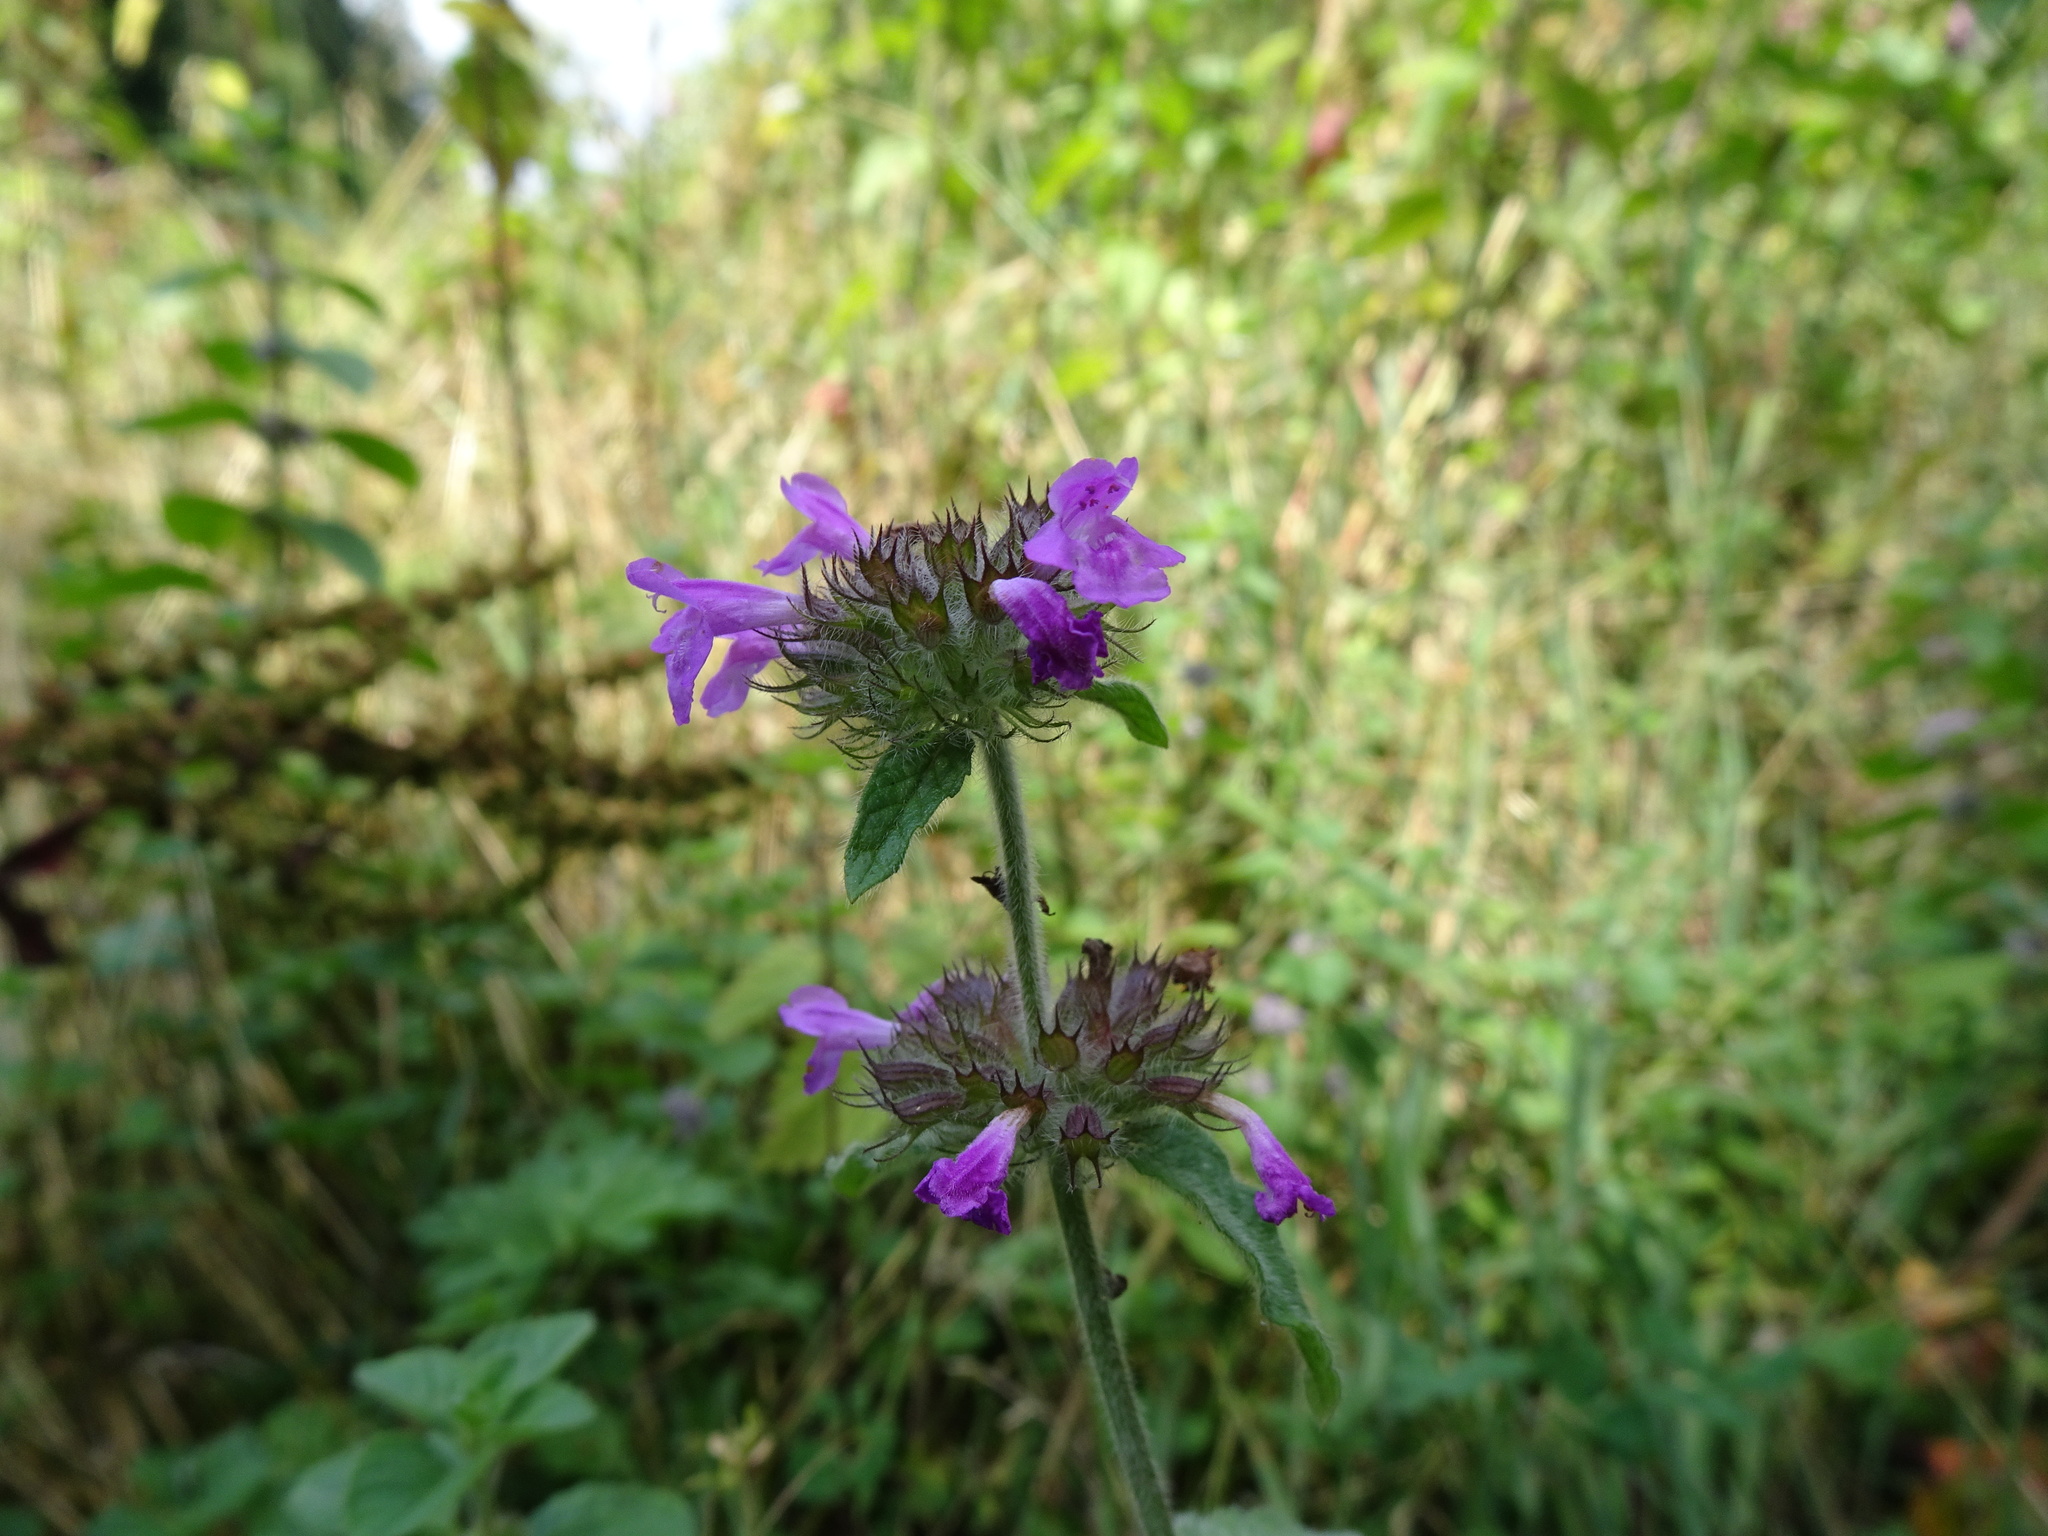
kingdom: Plantae
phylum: Tracheophyta
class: Magnoliopsida
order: Lamiales
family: Lamiaceae
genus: Clinopodium
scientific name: Clinopodium vulgare
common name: Wild basil
